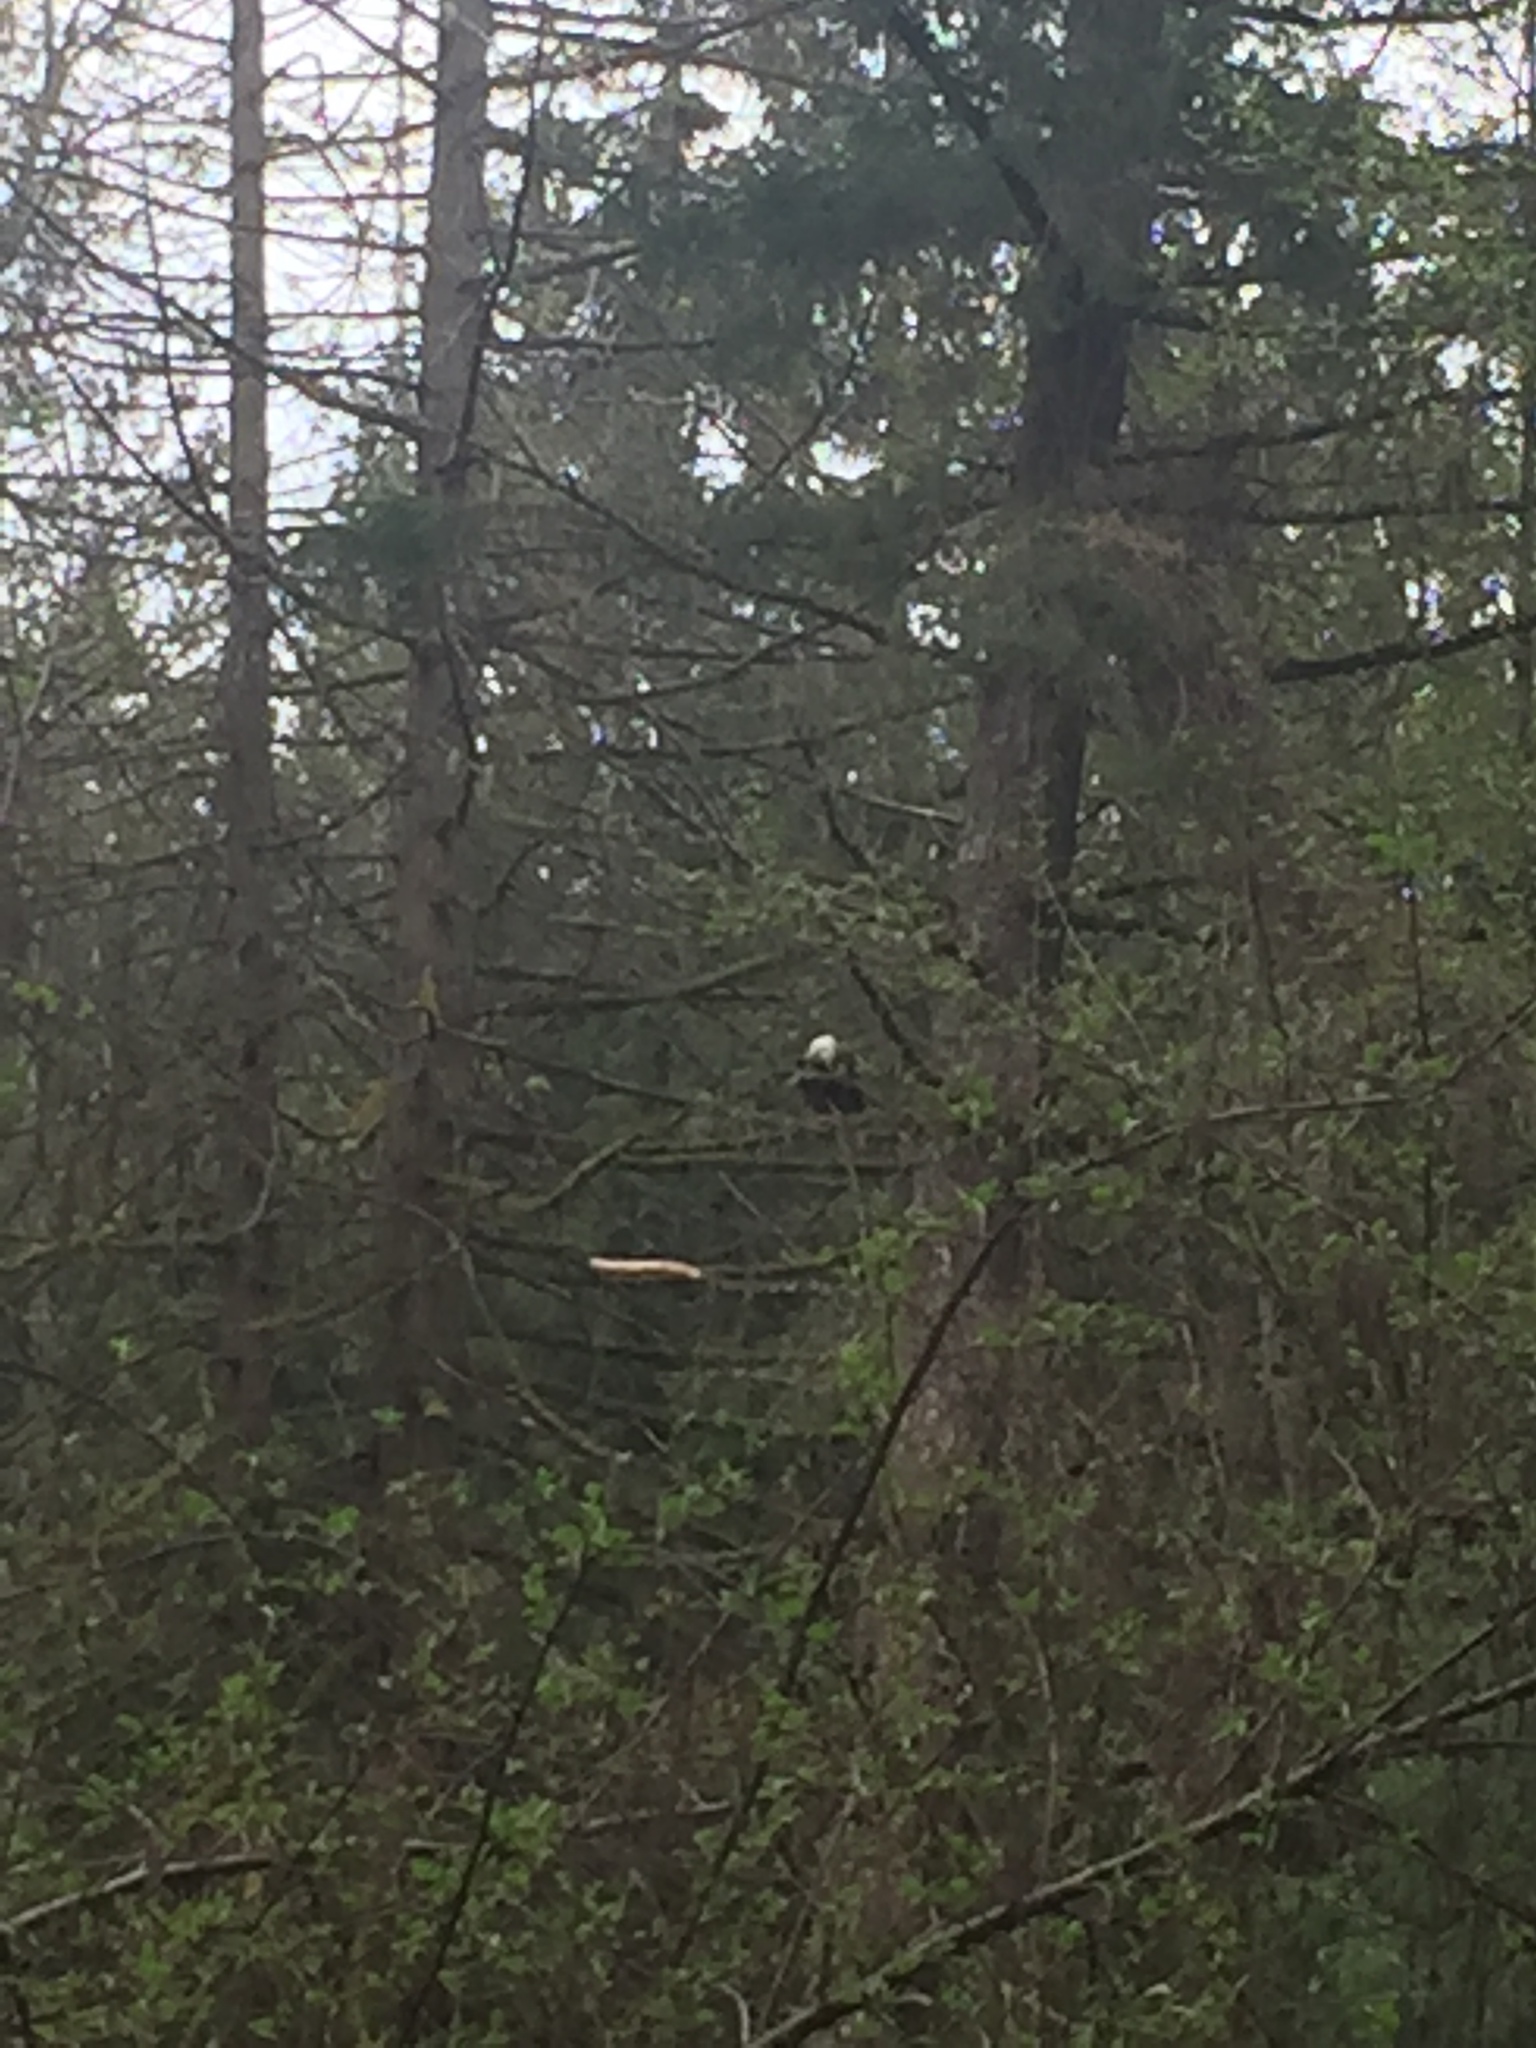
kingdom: Animalia
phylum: Chordata
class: Aves
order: Accipitriformes
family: Accipitridae
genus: Haliaeetus
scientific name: Haliaeetus leucocephalus
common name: Bald eagle
